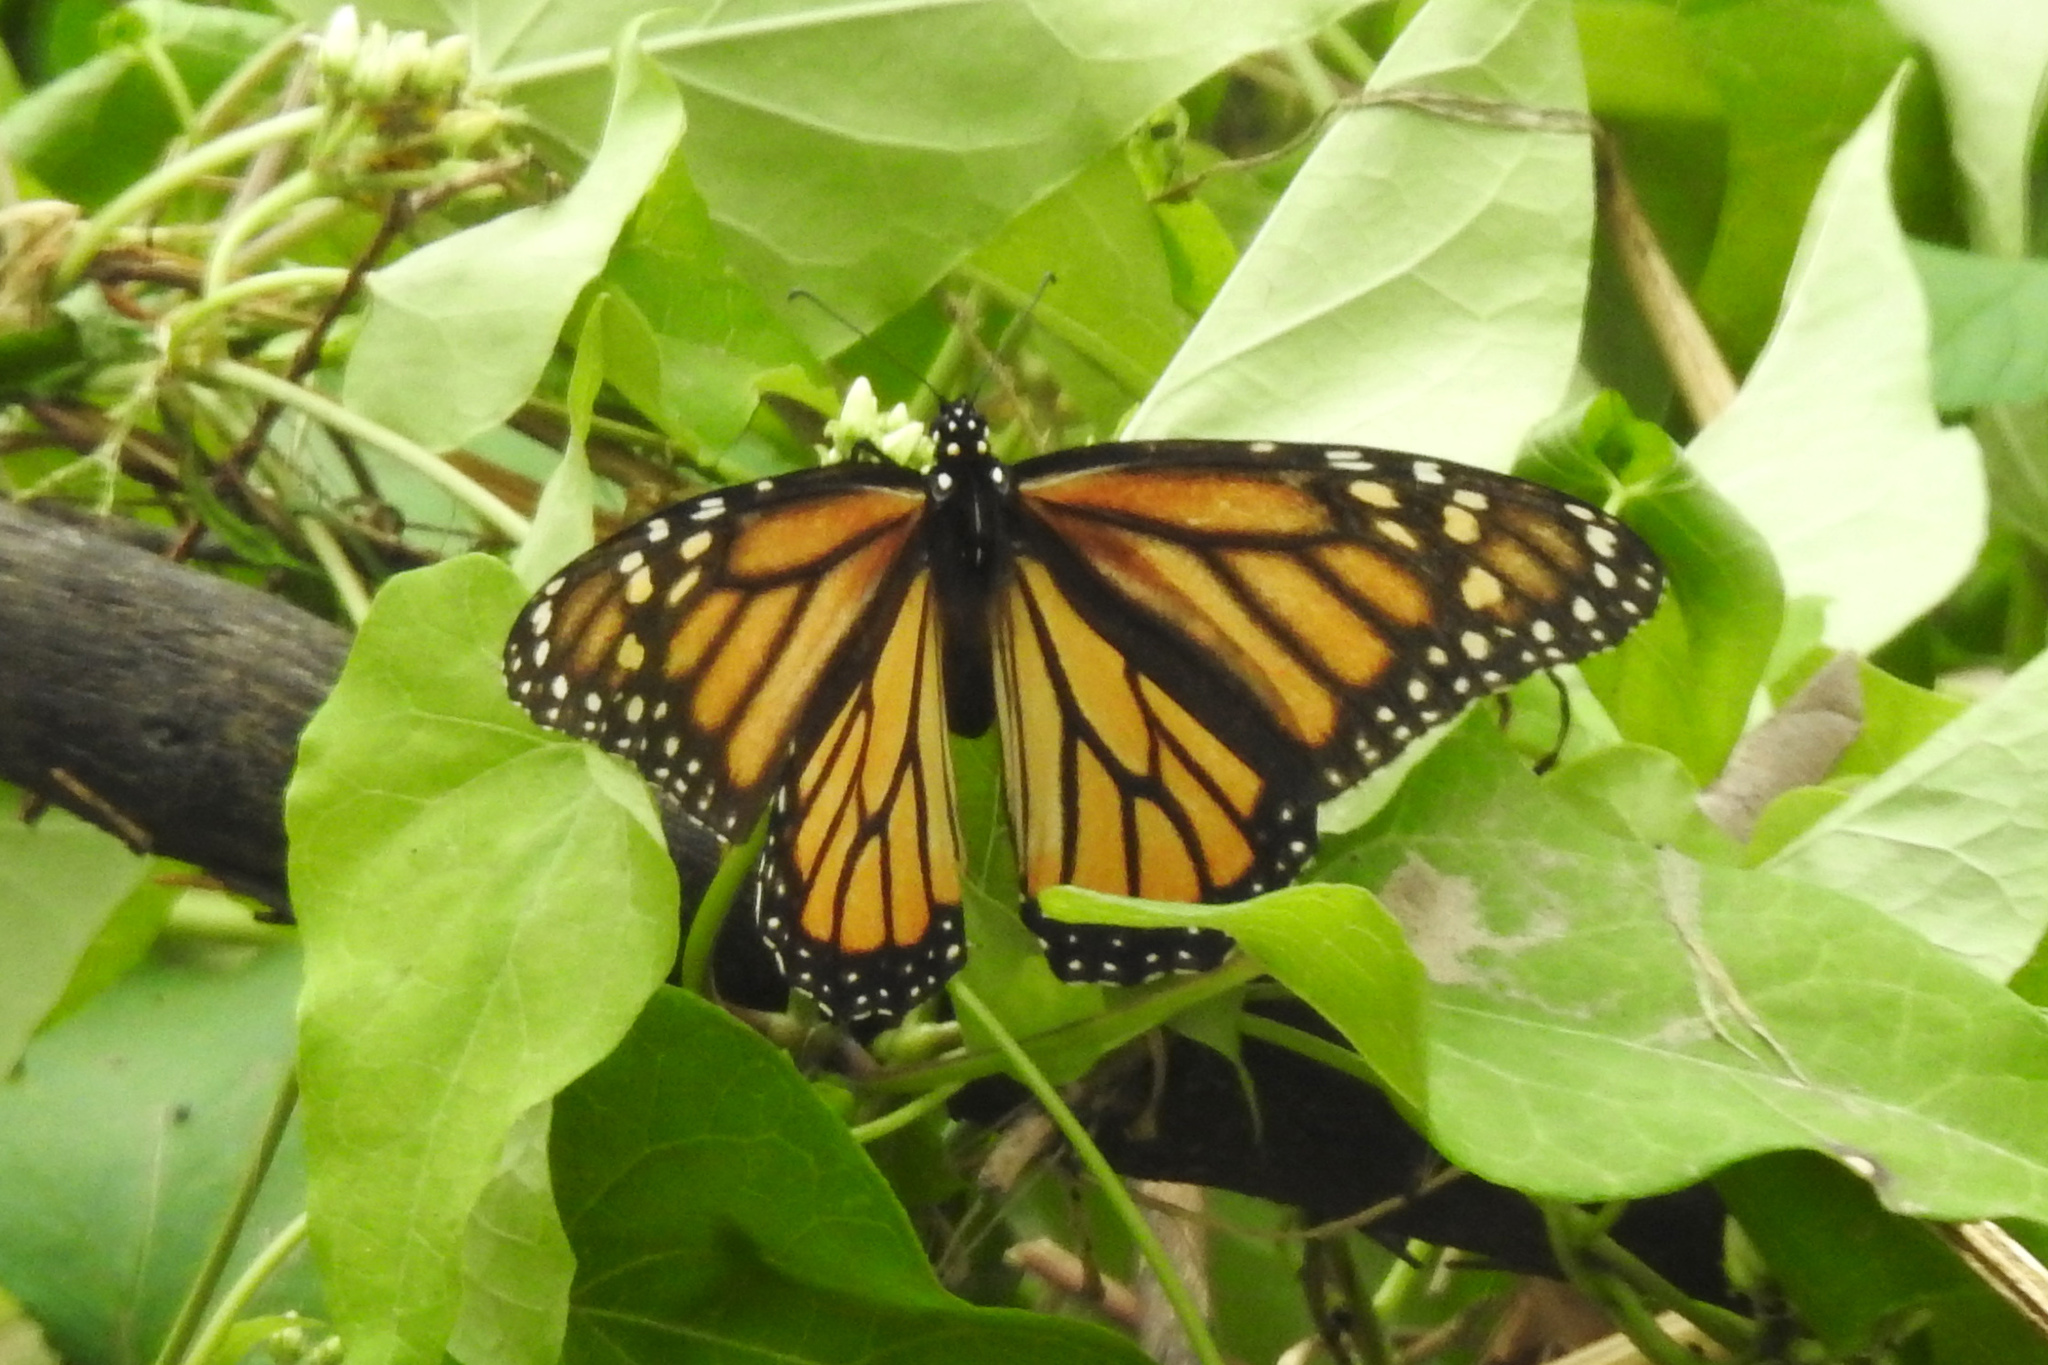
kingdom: Animalia
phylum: Arthropoda
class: Insecta
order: Lepidoptera
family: Nymphalidae
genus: Danaus
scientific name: Danaus plexippus
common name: Monarch
